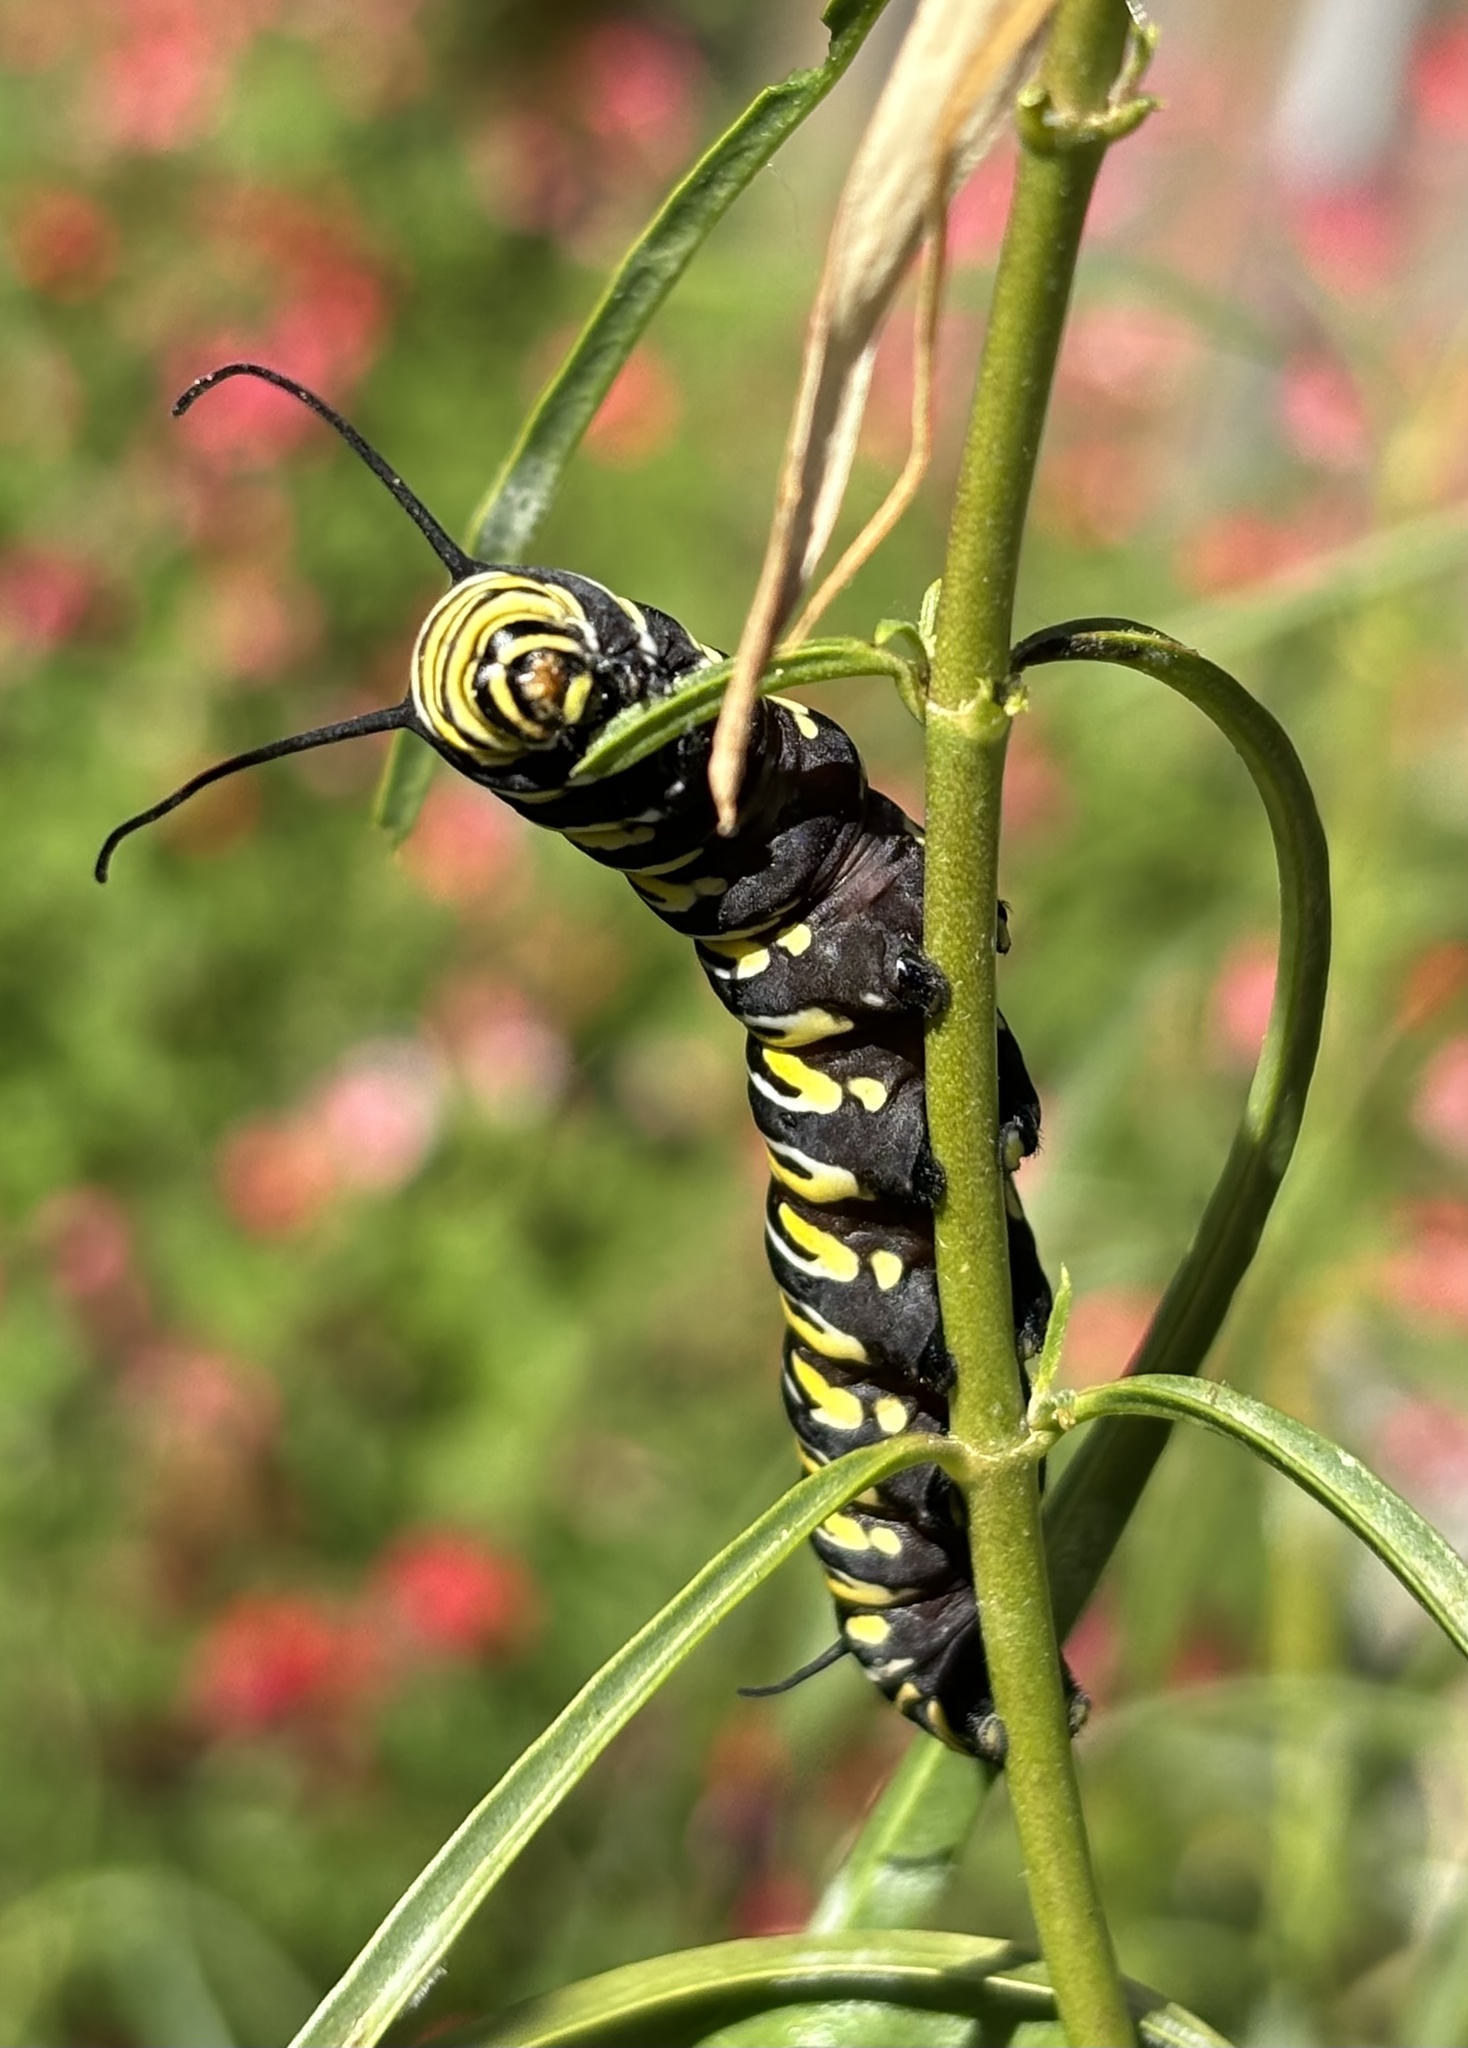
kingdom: Animalia
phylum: Arthropoda
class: Insecta
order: Lepidoptera
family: Nymphalidae
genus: Danaus
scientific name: Danaus plexippus
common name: Monarch
